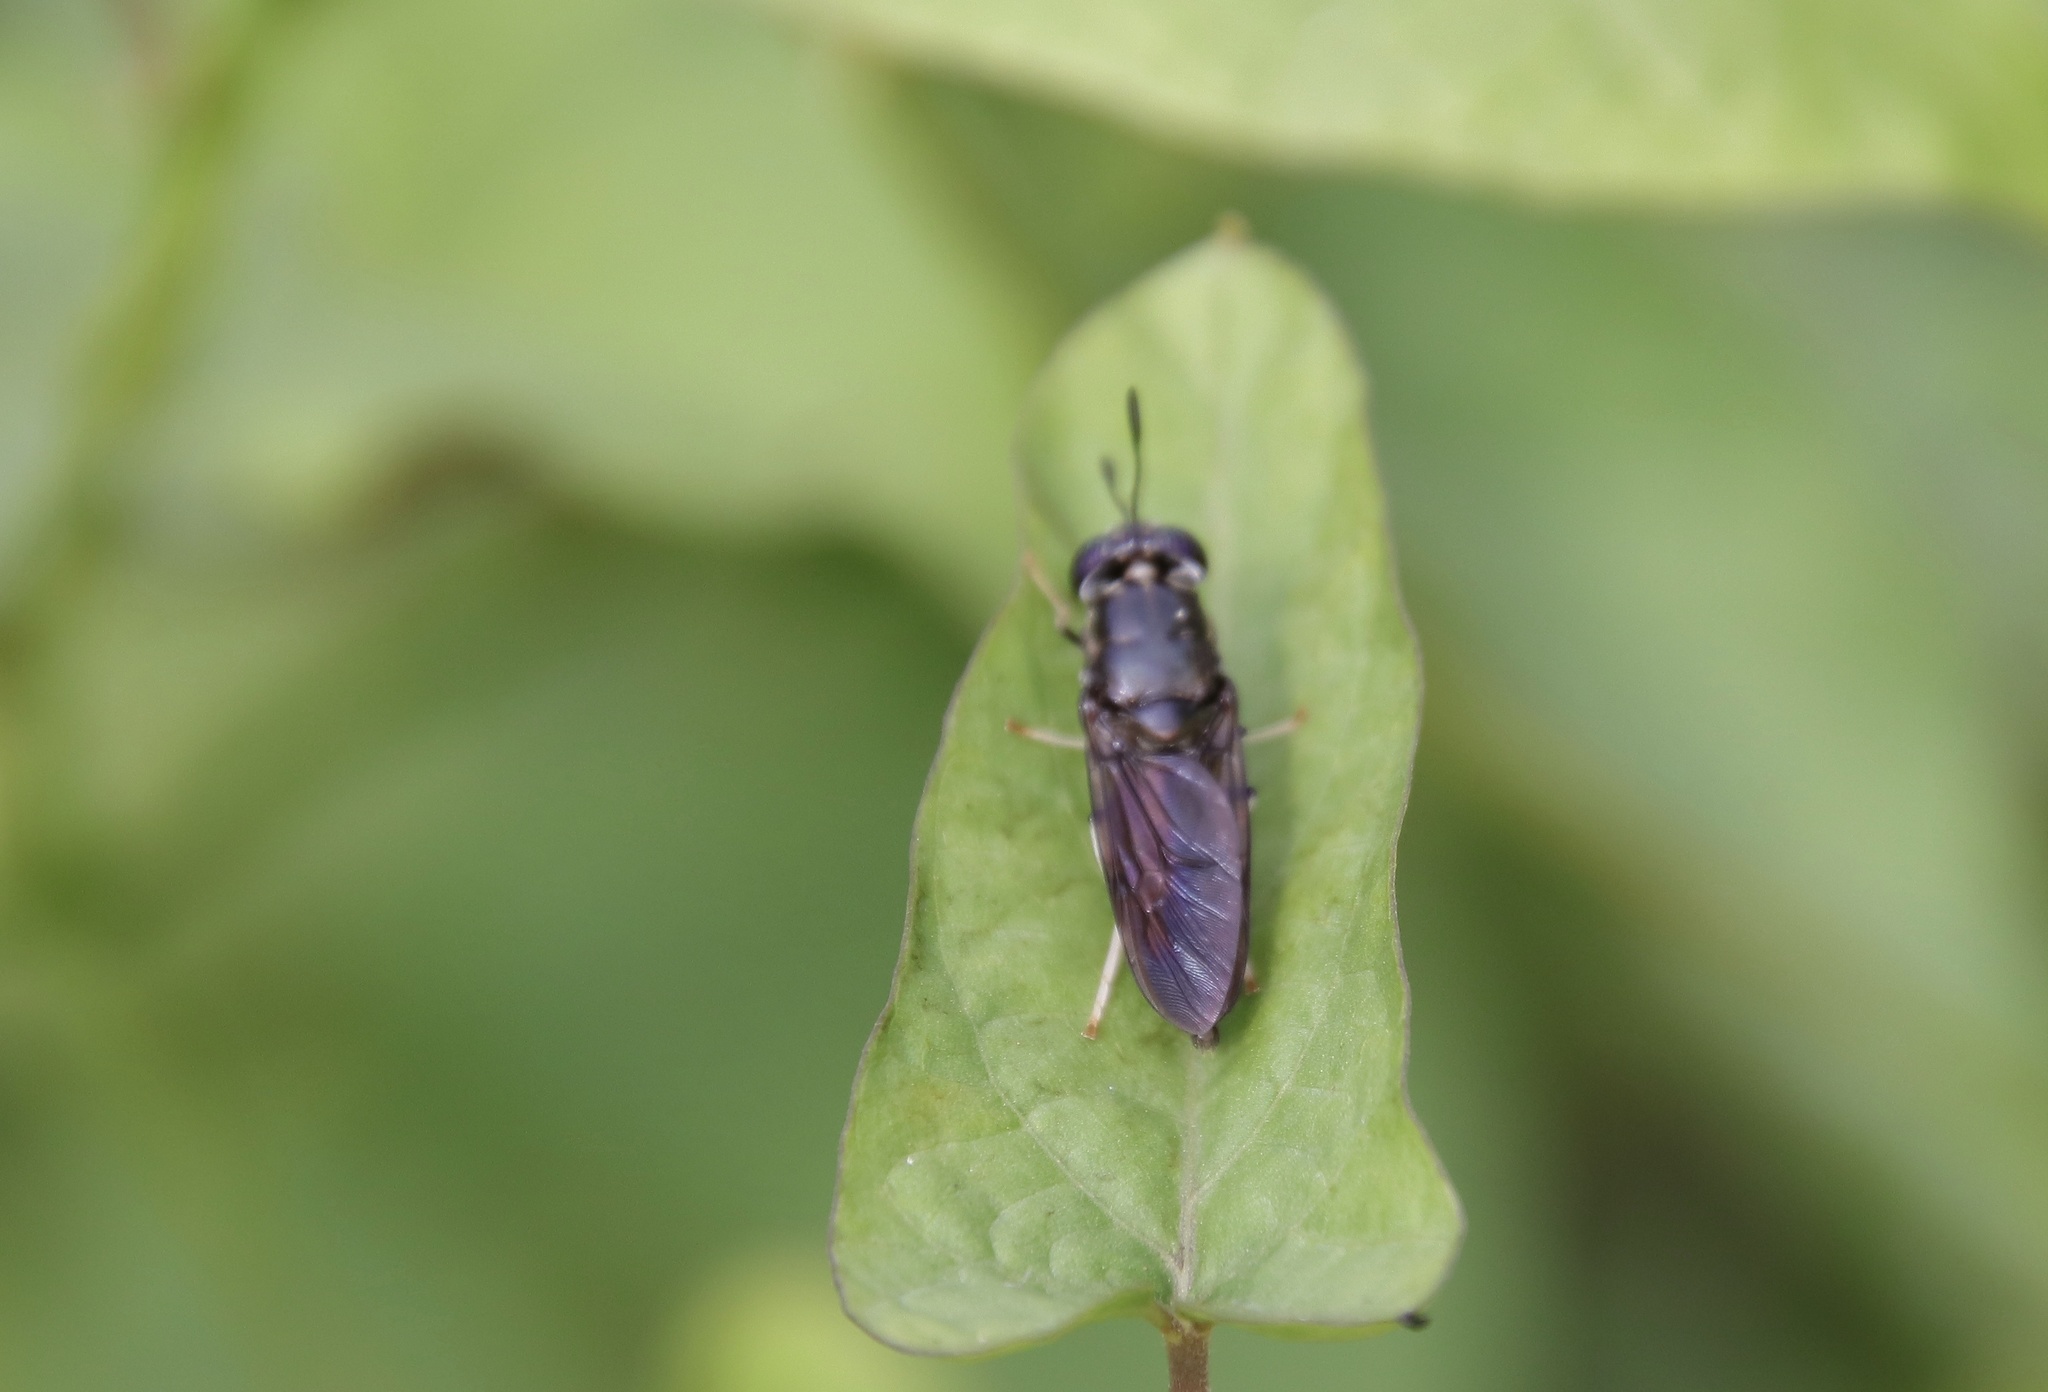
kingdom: Animalia
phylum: Arthropoda
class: Insecta
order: Diptera
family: Stratiomyidae
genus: Hermetia
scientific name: Hermetia illucens
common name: Black soldier fly
